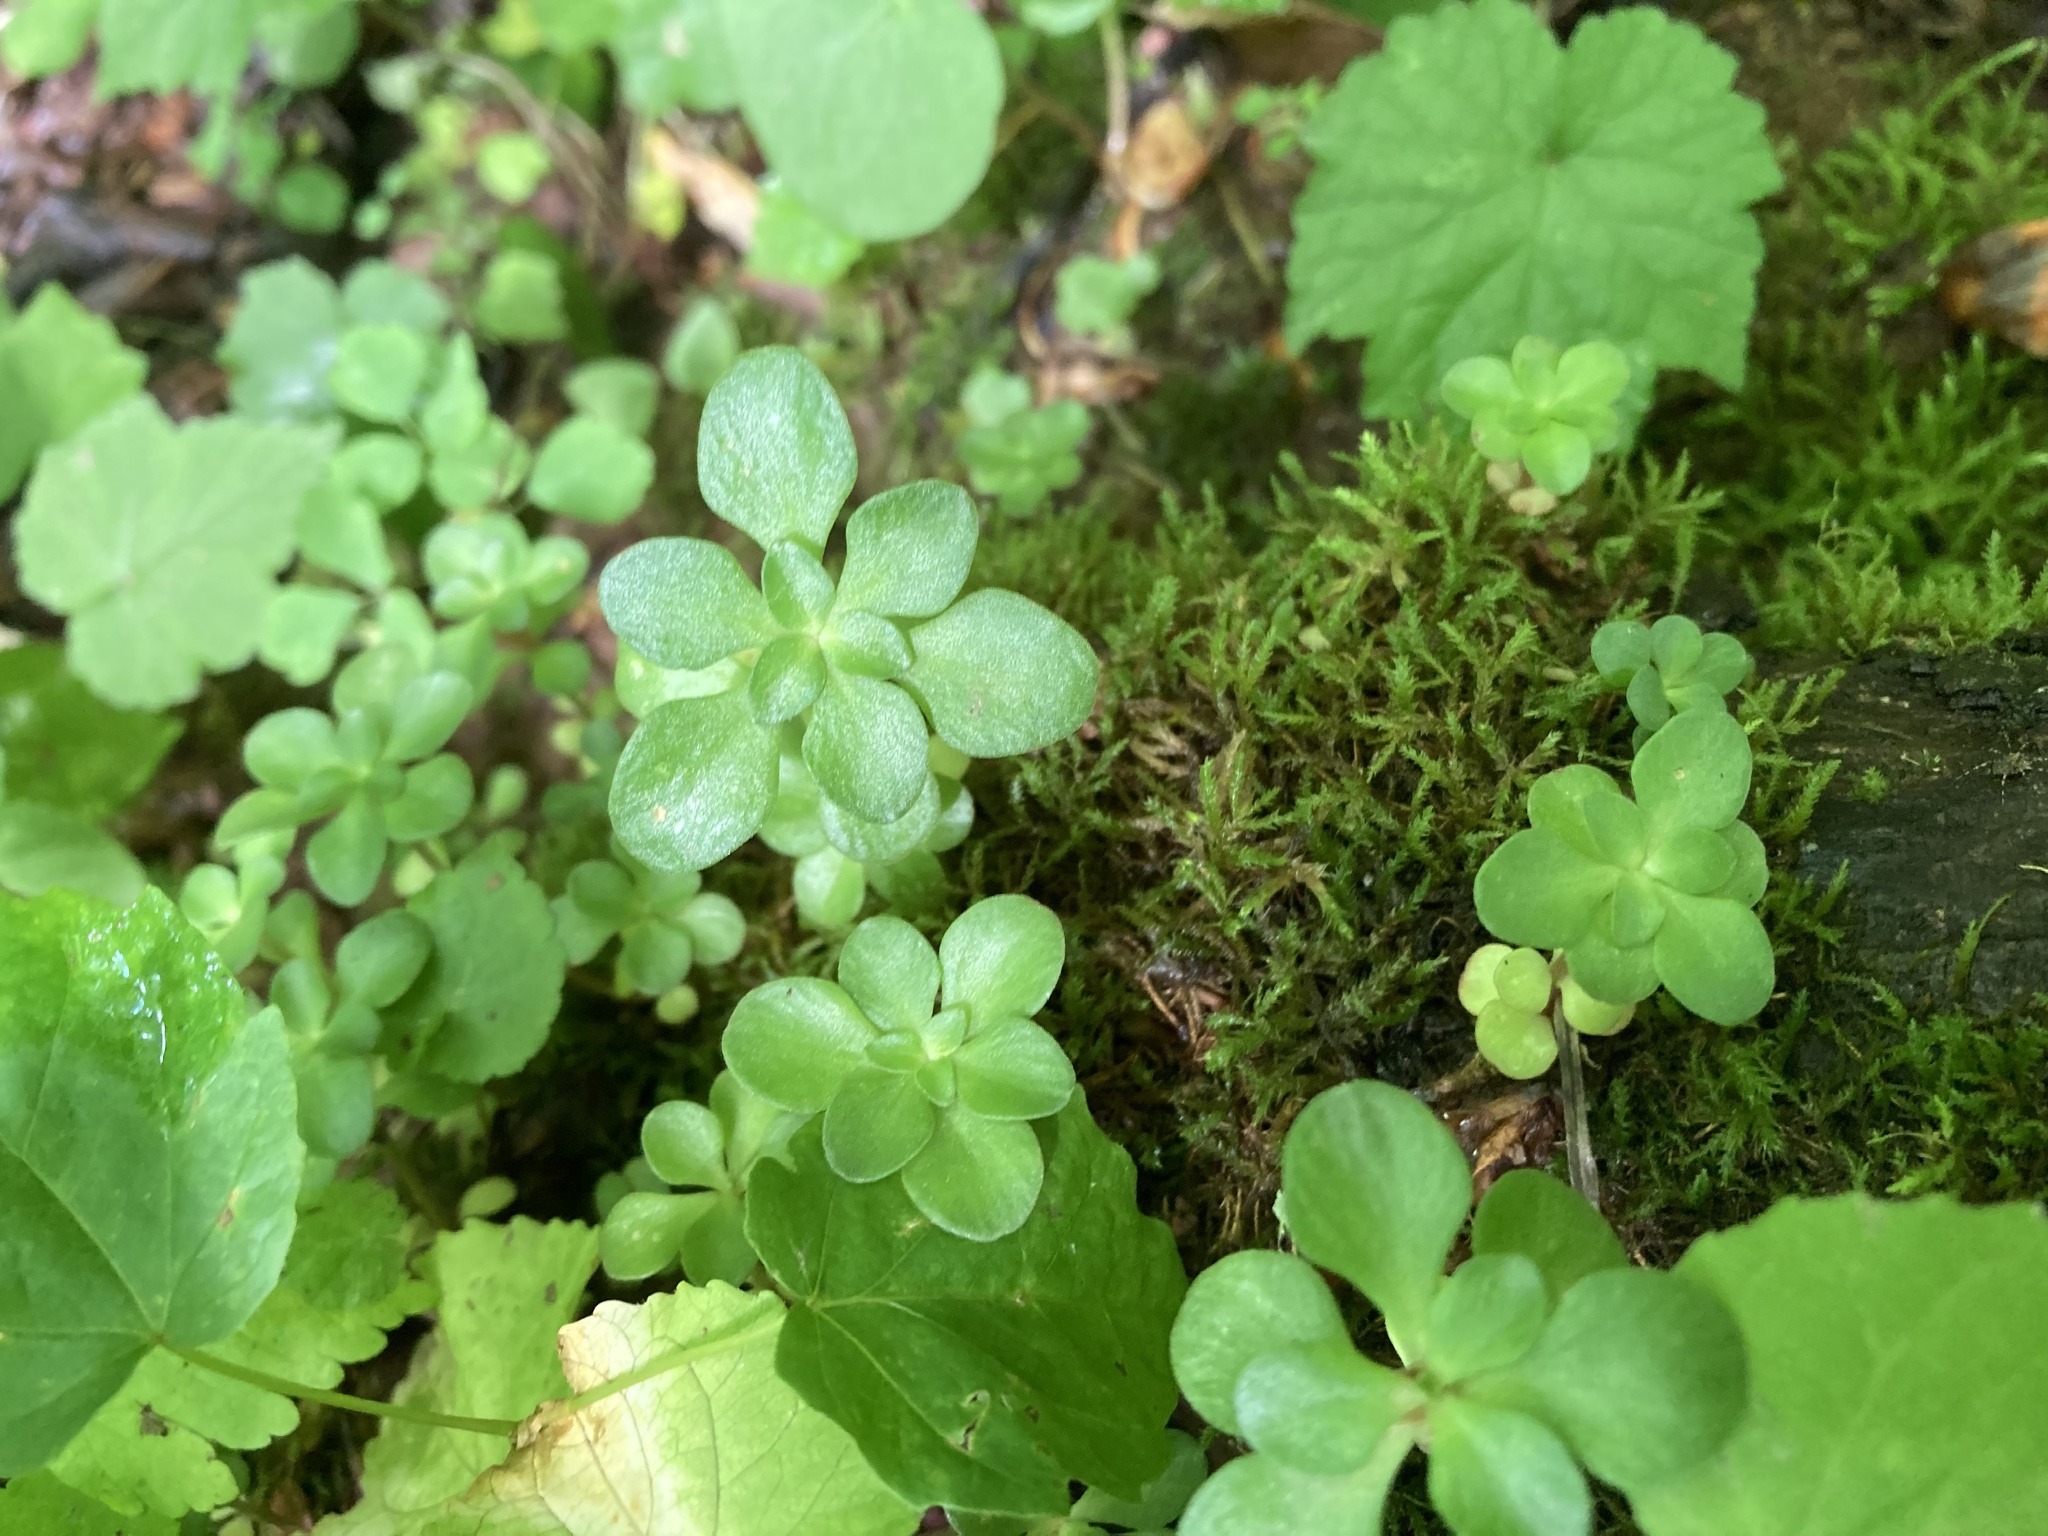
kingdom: Plantae
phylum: Tracheophyta
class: Magnoliopsida
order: Saxifragales
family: Crassulaceae
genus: Sedum
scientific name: Sedum ternatum
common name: Wild stonecrop
